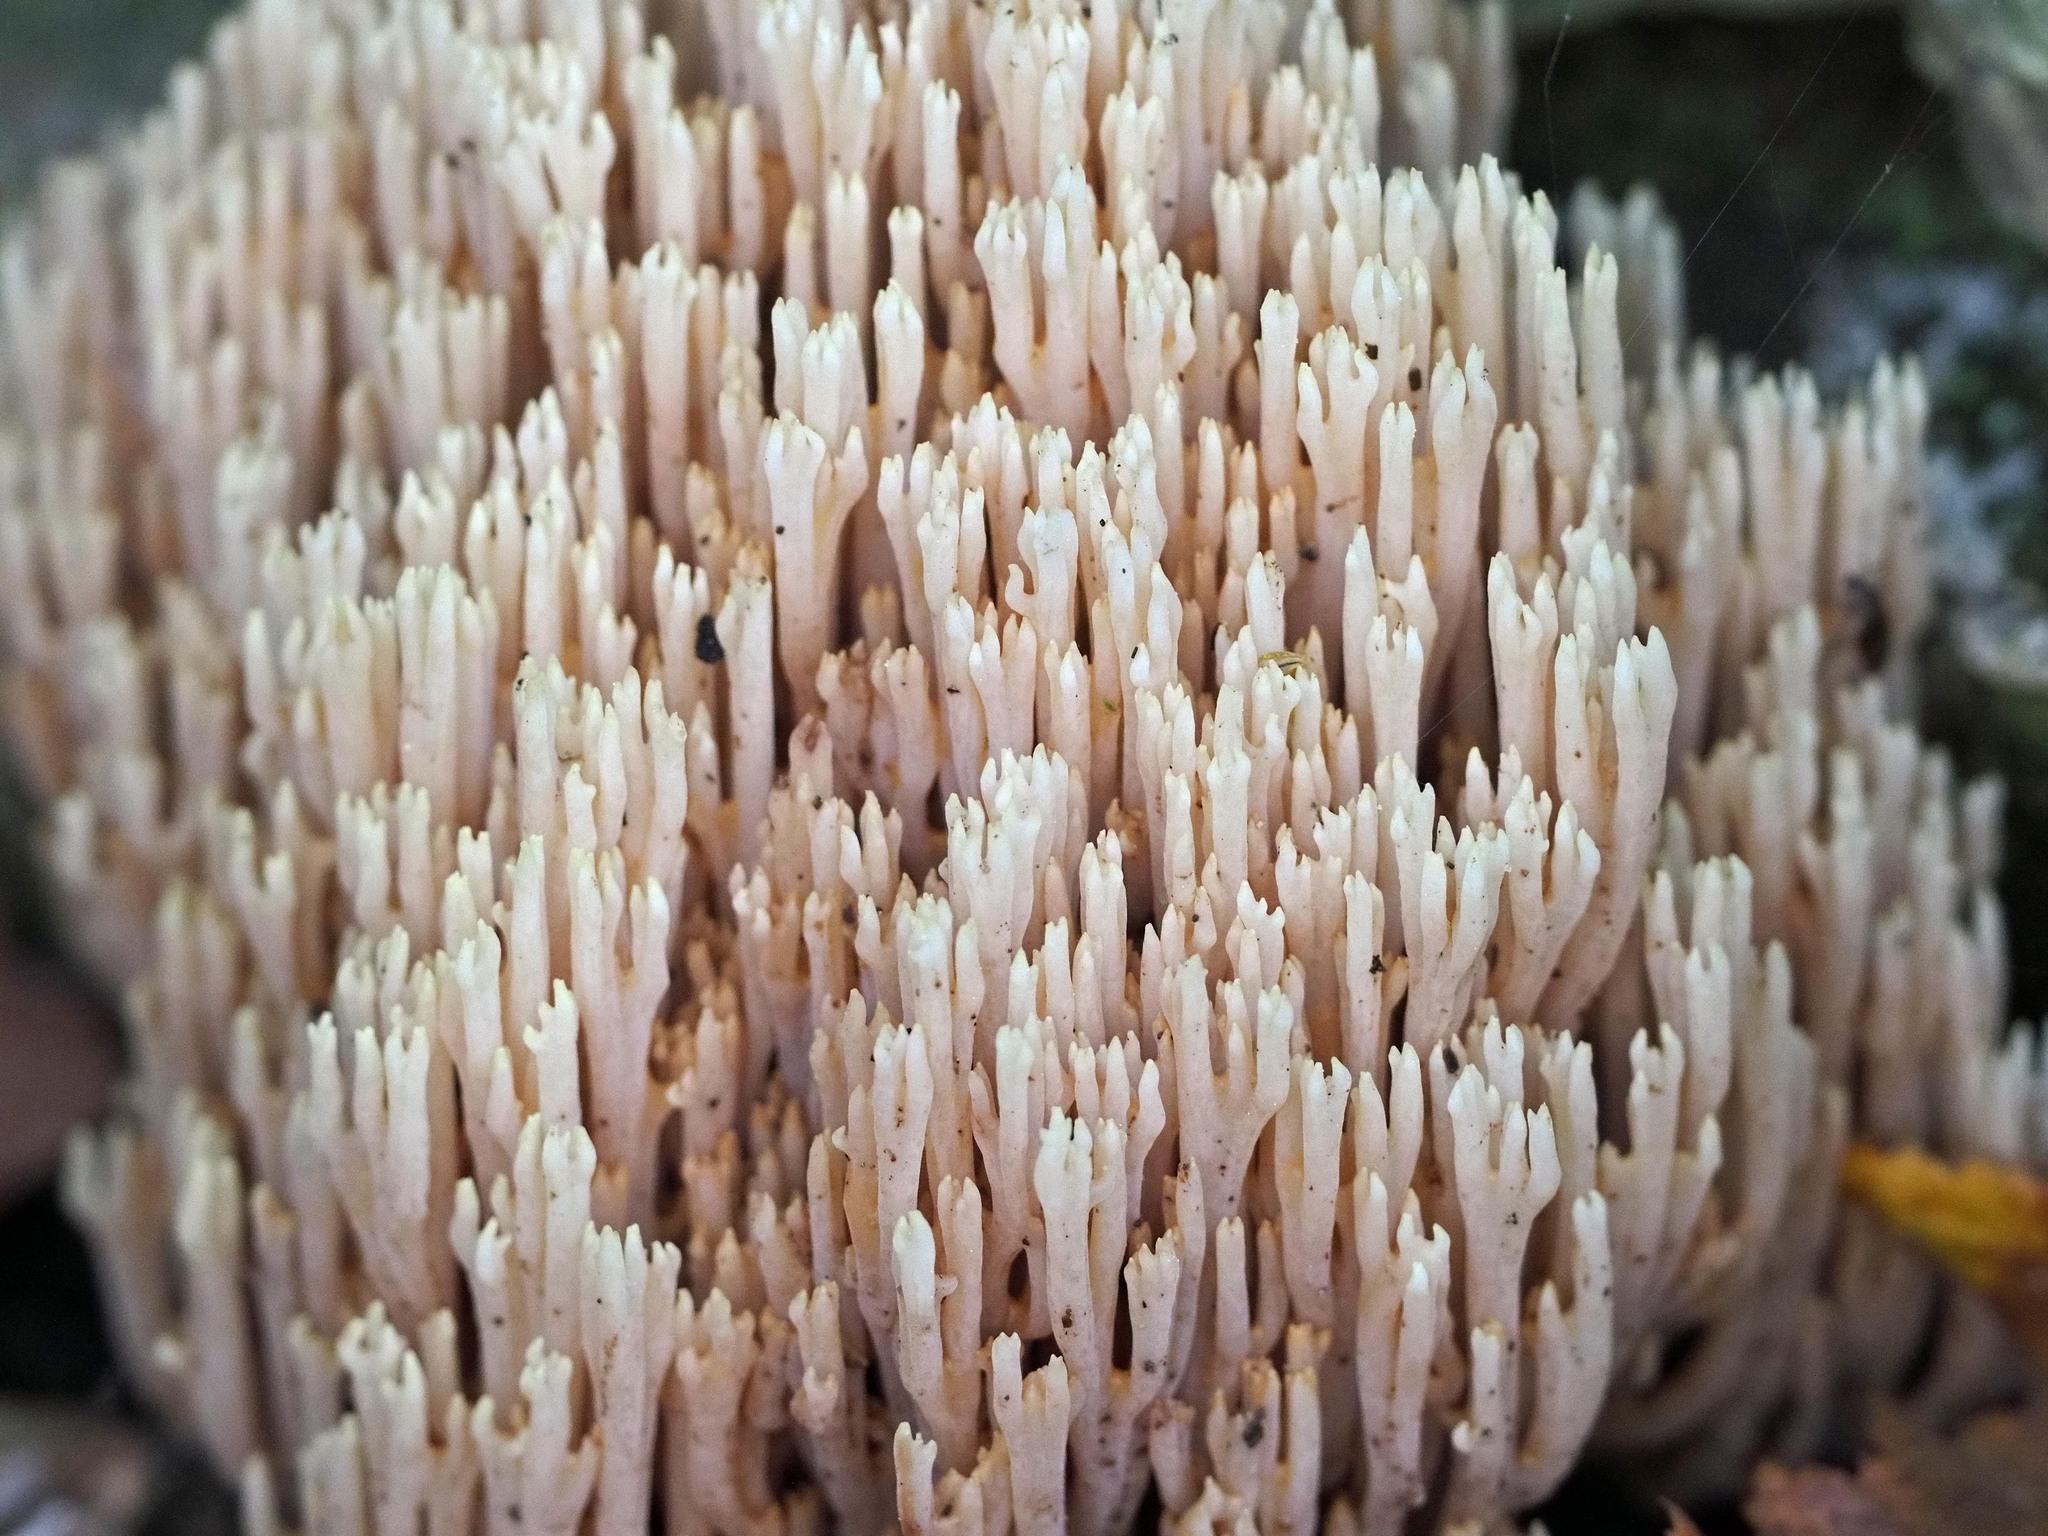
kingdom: Fungi
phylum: Basidiomycota
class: Agaricomycetes
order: Gomphales
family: Gomphaceae
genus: Ramaria
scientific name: Ramaria stricta
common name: Upright coral
